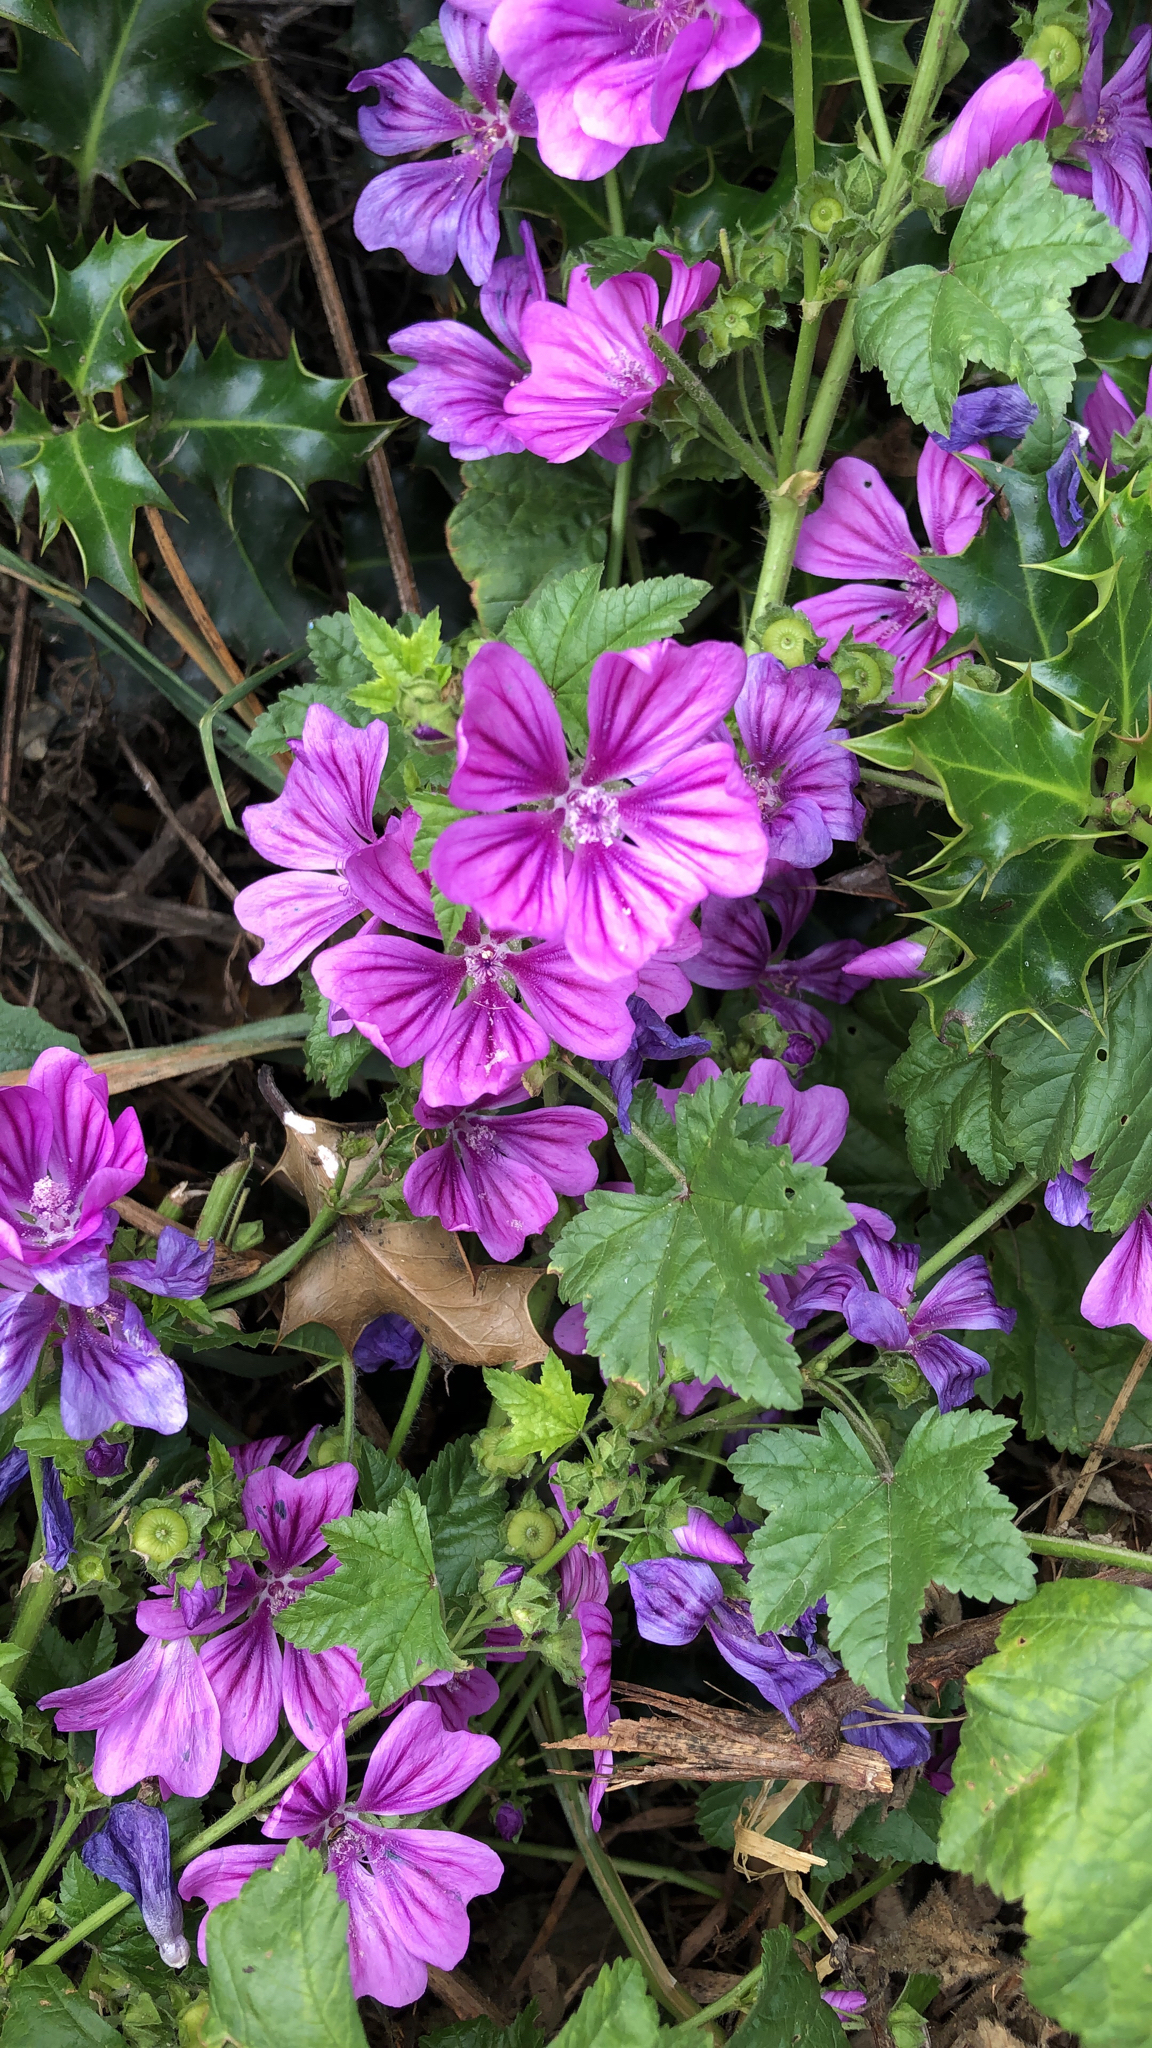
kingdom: Plantae
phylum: Tracheophyta
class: Magnoliopsida
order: Malvales
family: Malvaceae
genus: Malva
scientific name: Malva sylvestris
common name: Common mallow
